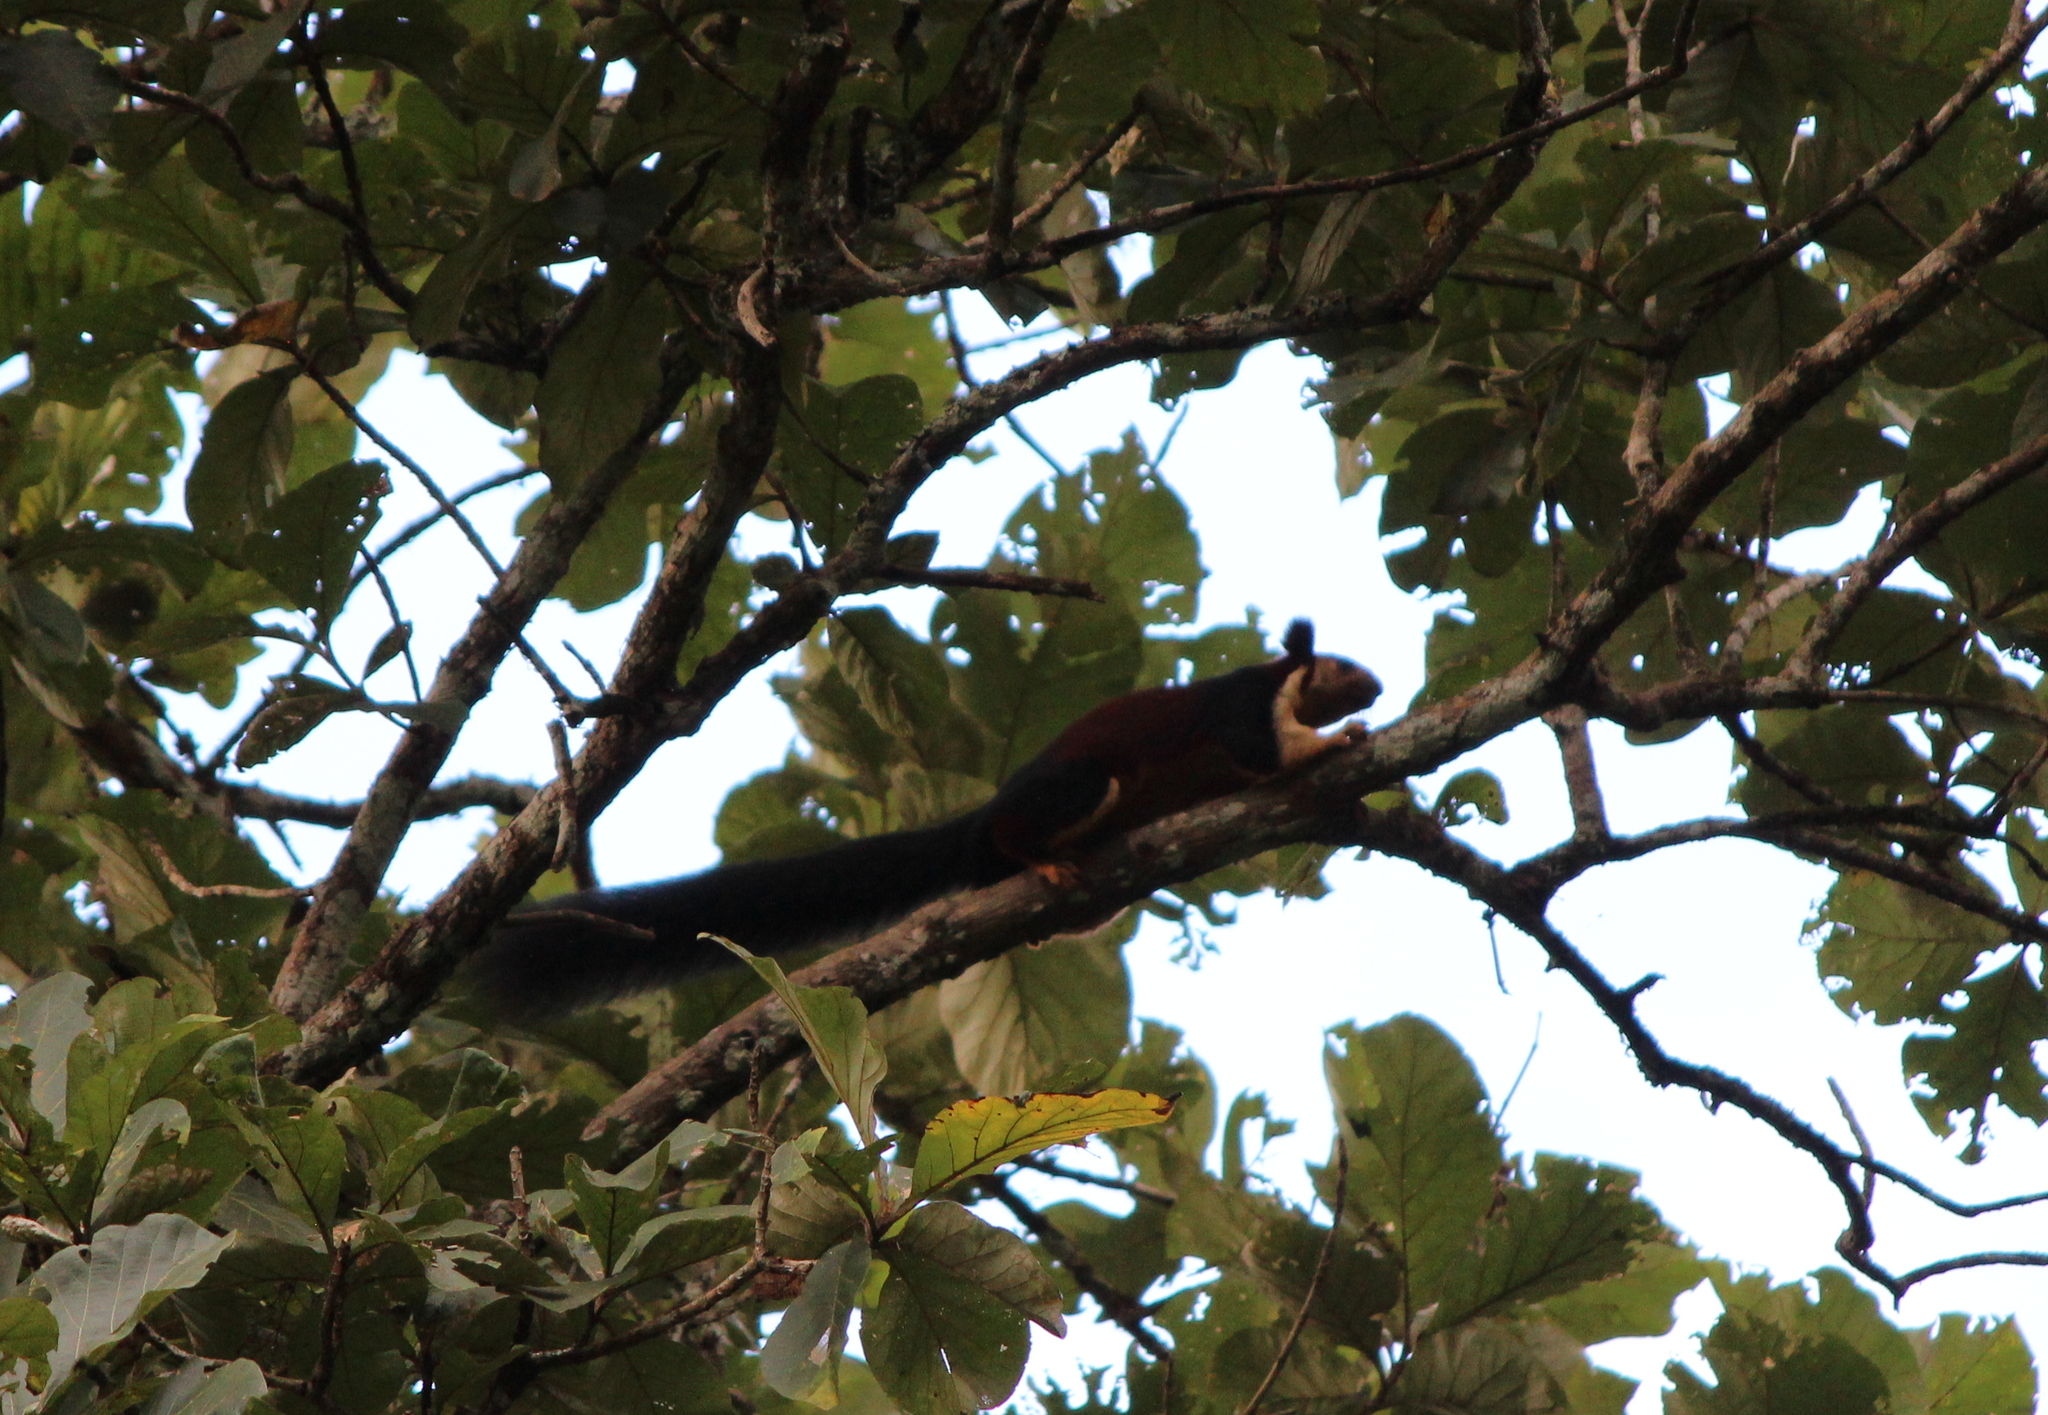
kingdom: Animalia
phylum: Chordata
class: Mammalia
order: Rodentia
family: Sciuridae
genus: Ratufa
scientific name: Ratufa indica
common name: Indian giant squirrel
